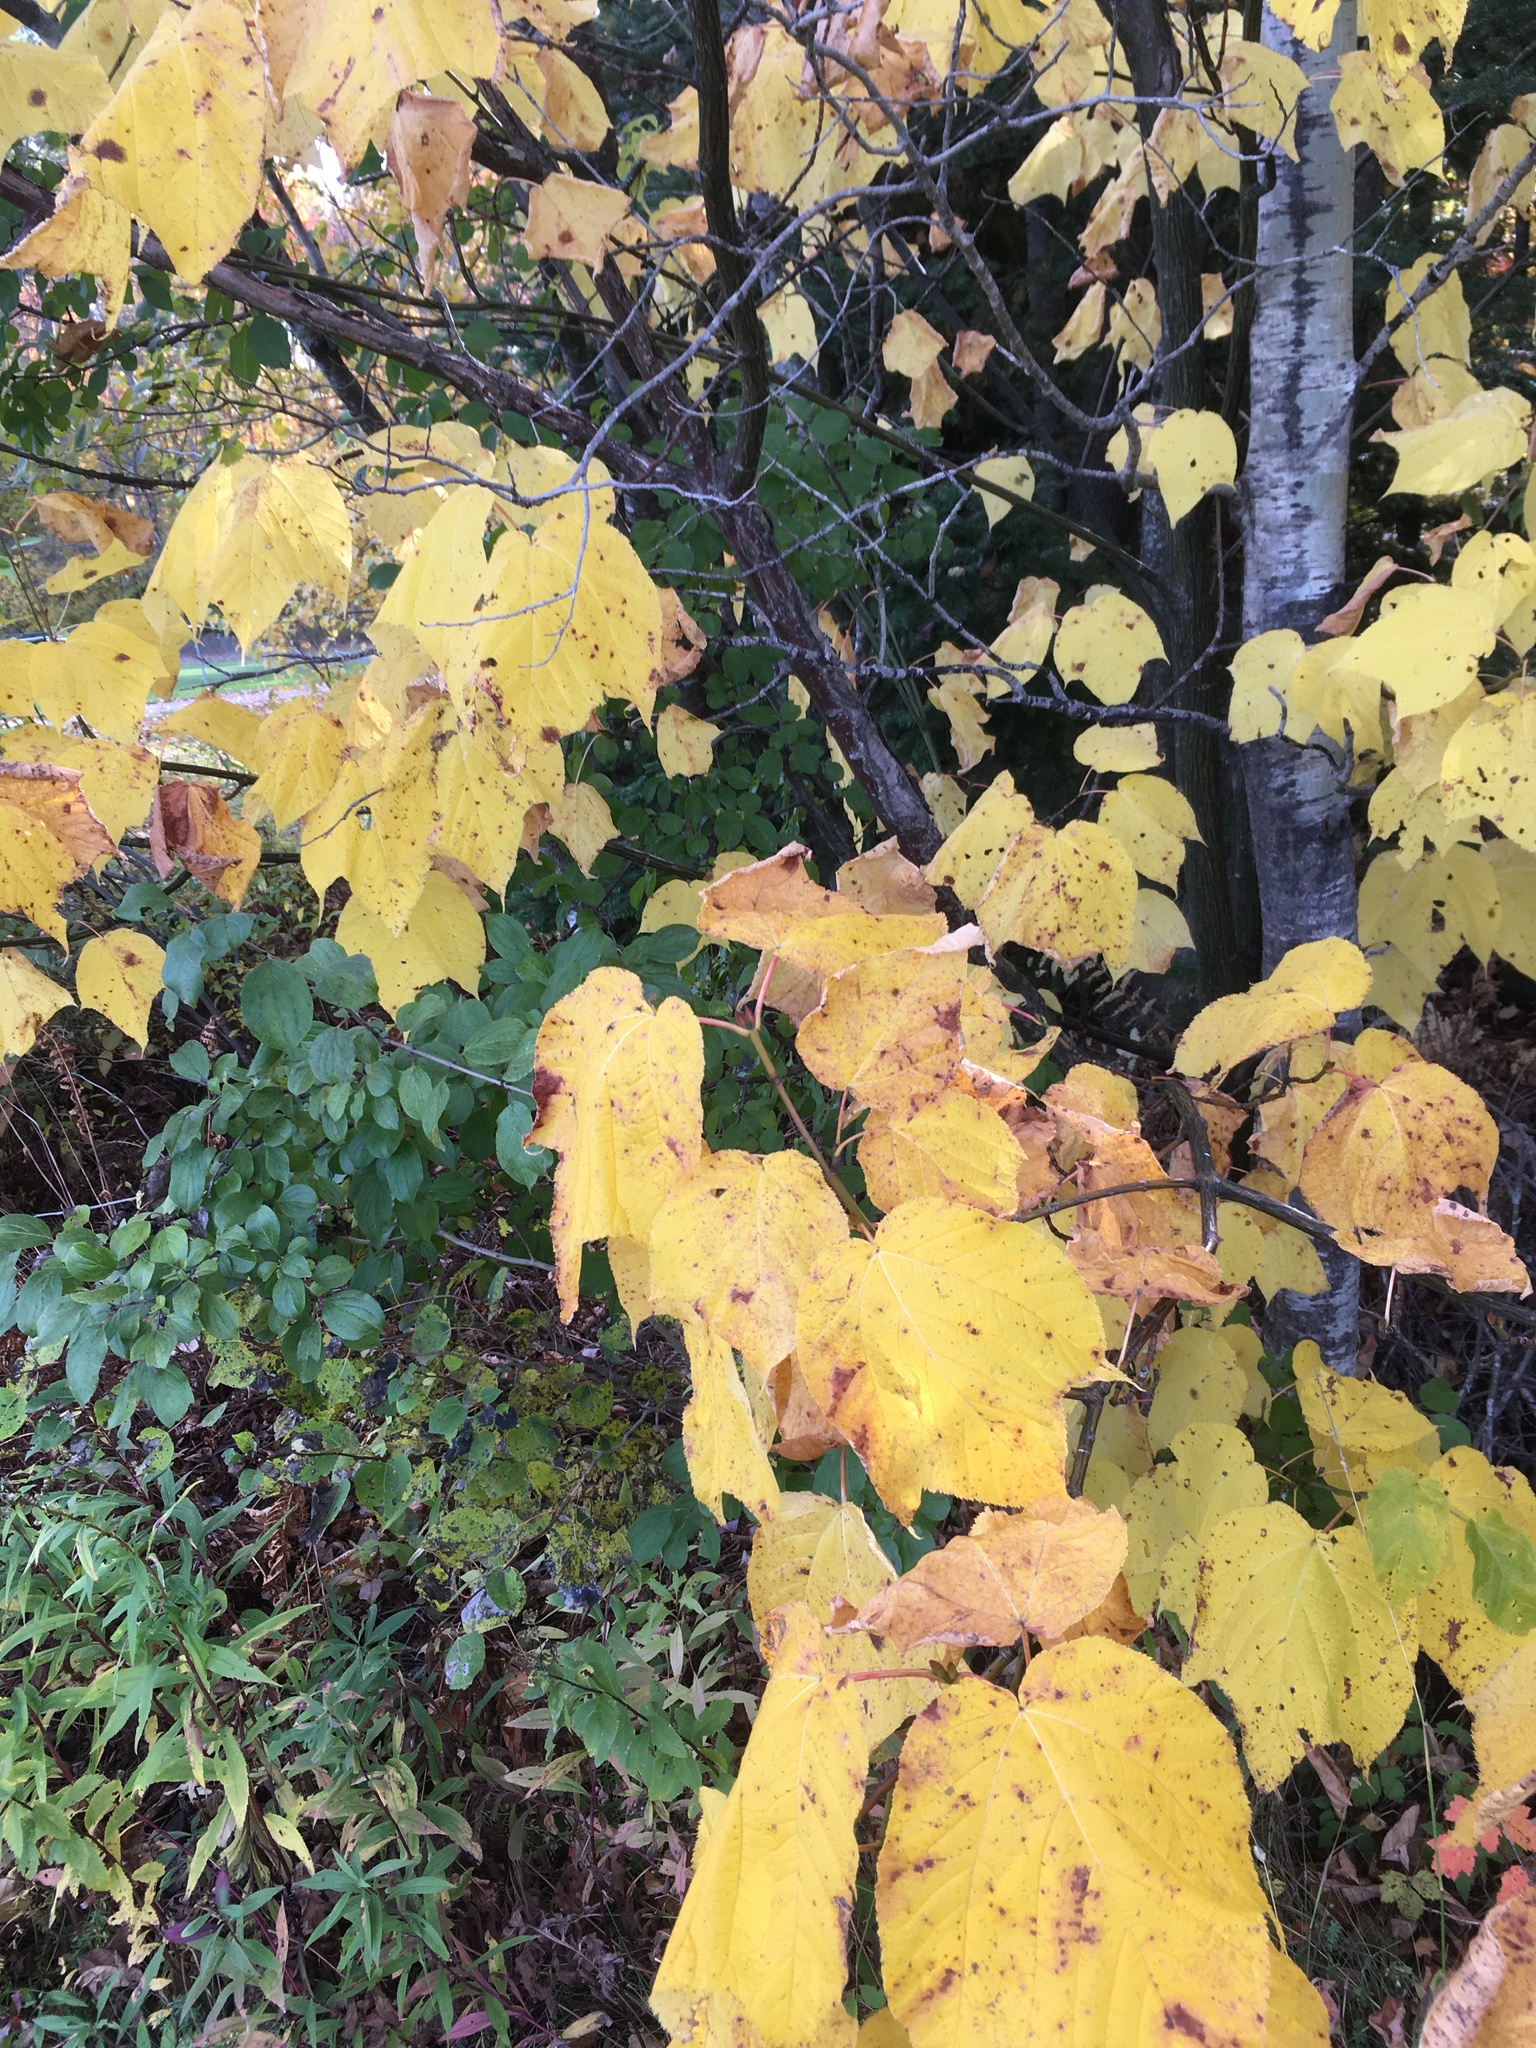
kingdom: Plantae
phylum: Tracheophyta
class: Magnoliopsida
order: Sapindales
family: Sapindaceae
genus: Acer
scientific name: Acer pensylvanicum
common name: Moosewood
